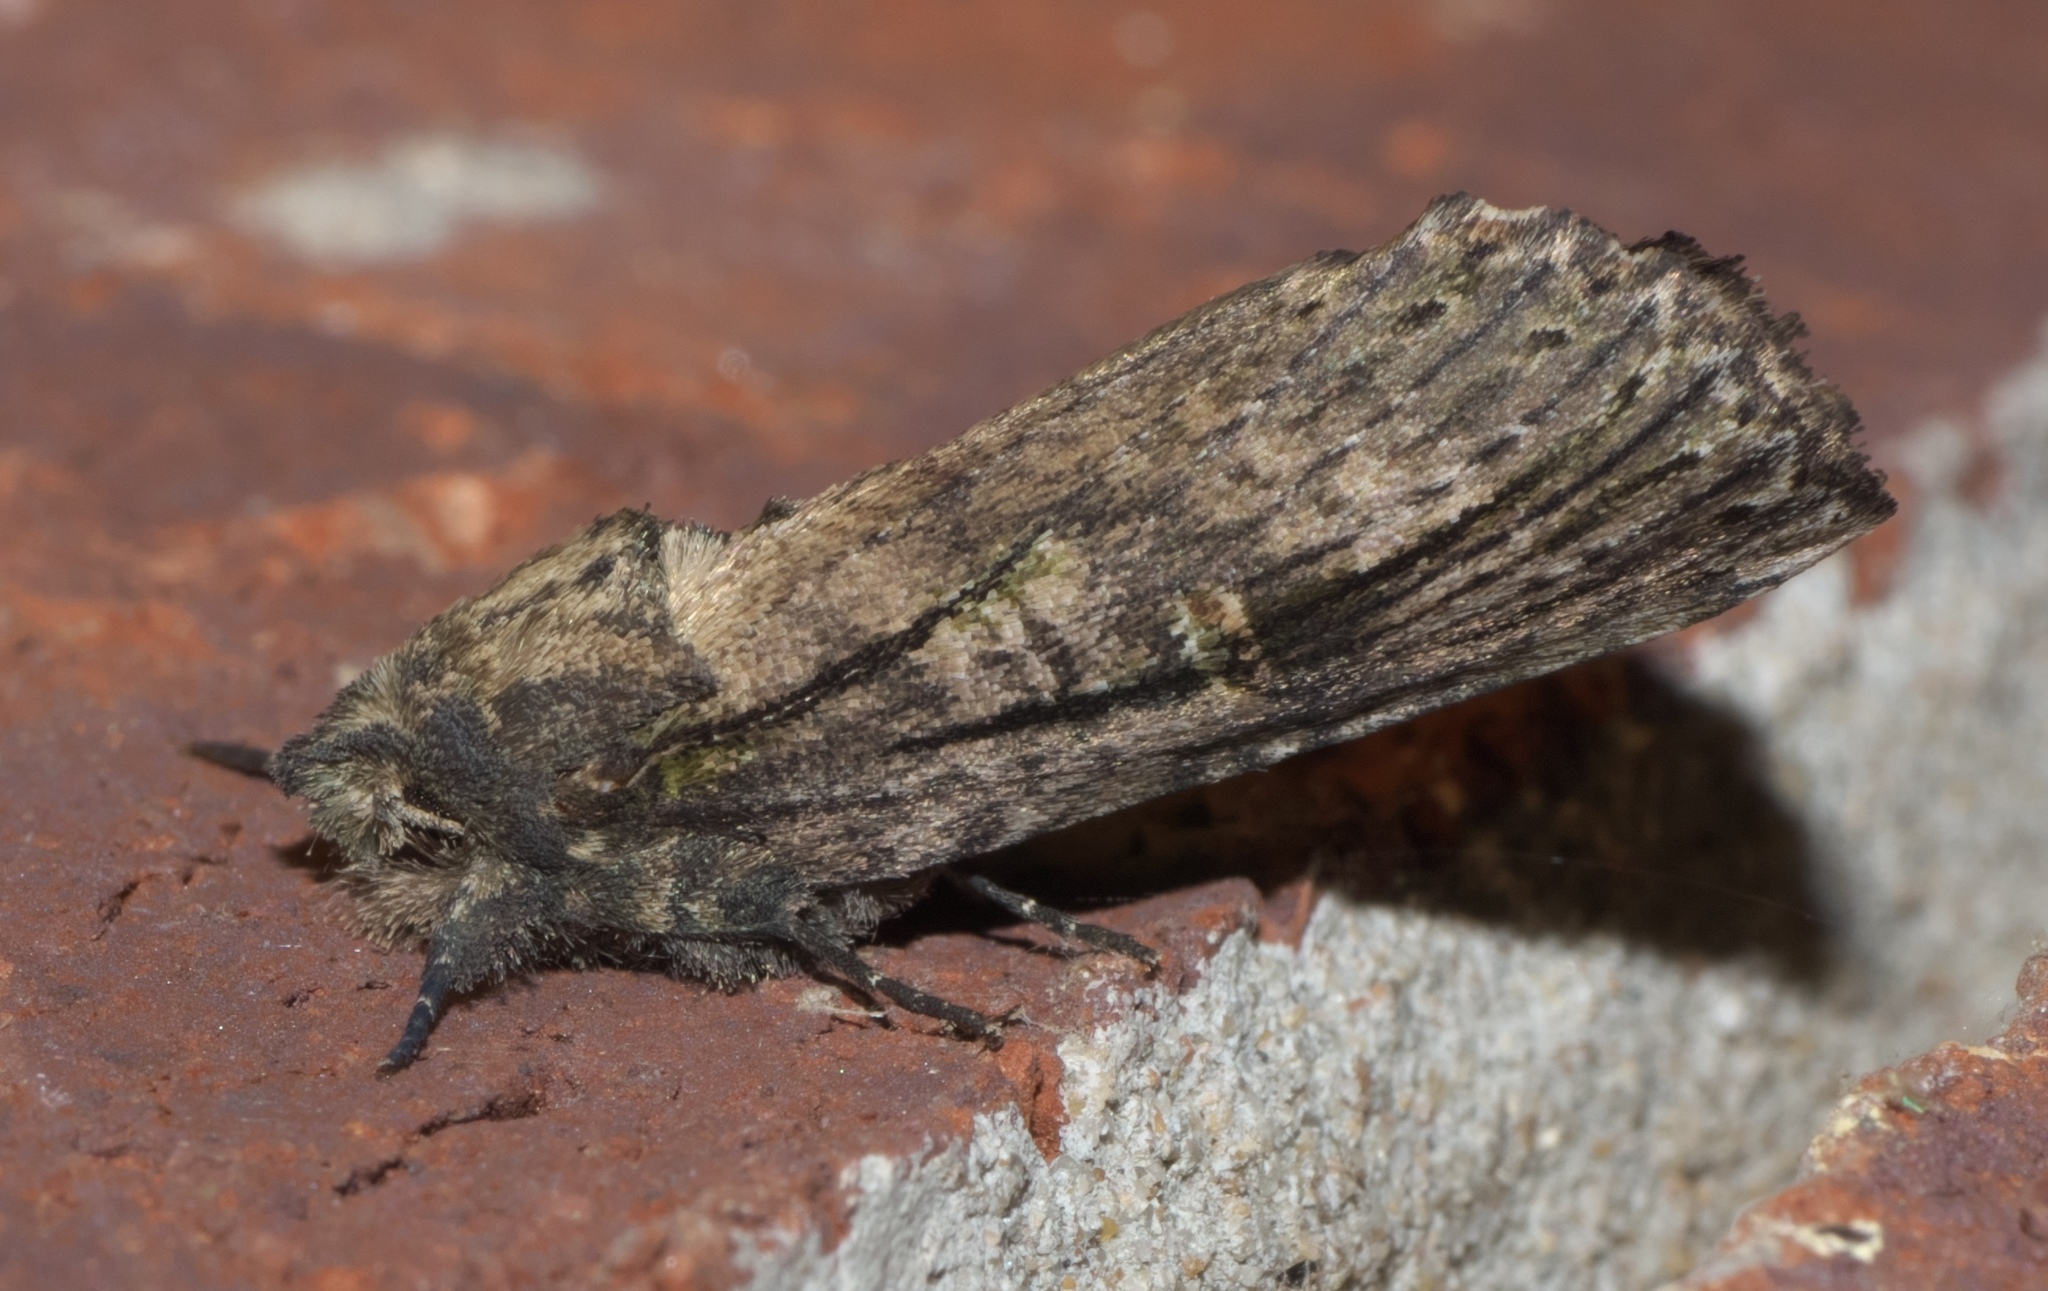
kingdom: Animalia
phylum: Arthropoda
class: Insecta
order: Lepidoptera
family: Notodontidae
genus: Schizura
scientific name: Schizura ipomaeae
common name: Morning-glory prominent
